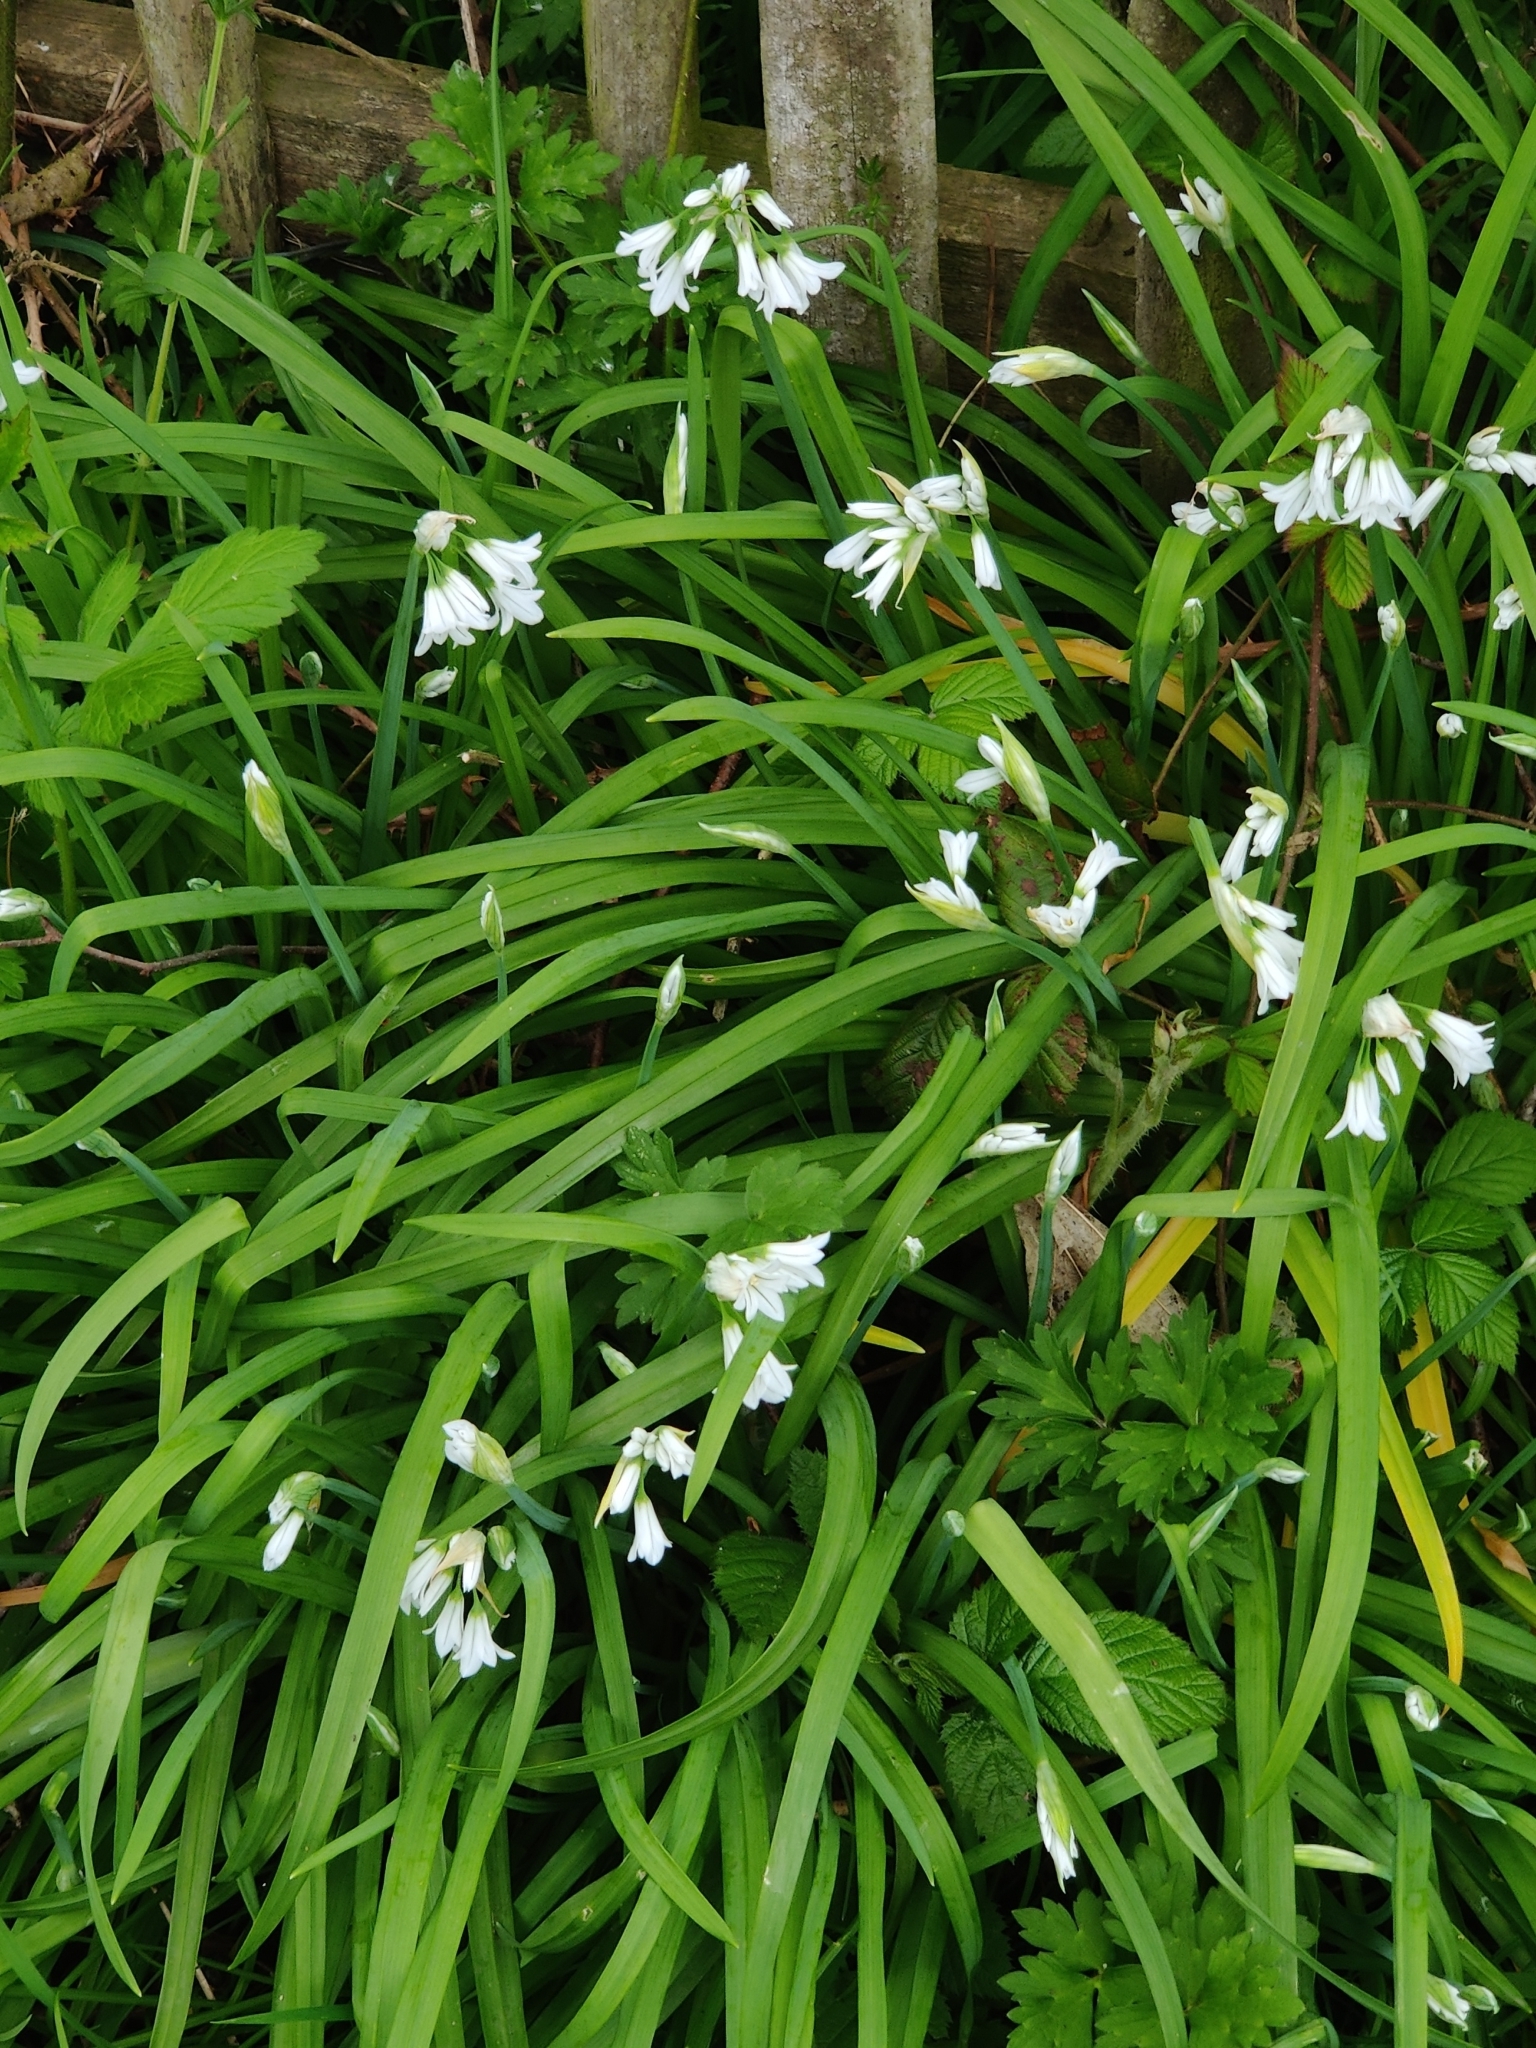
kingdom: Plantae
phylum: Tracheophyta
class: Liliopsida
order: Asparagales
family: Amaryllidaceae
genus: Allium
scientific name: Allium triquetrum
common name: Three-cornered garlic
